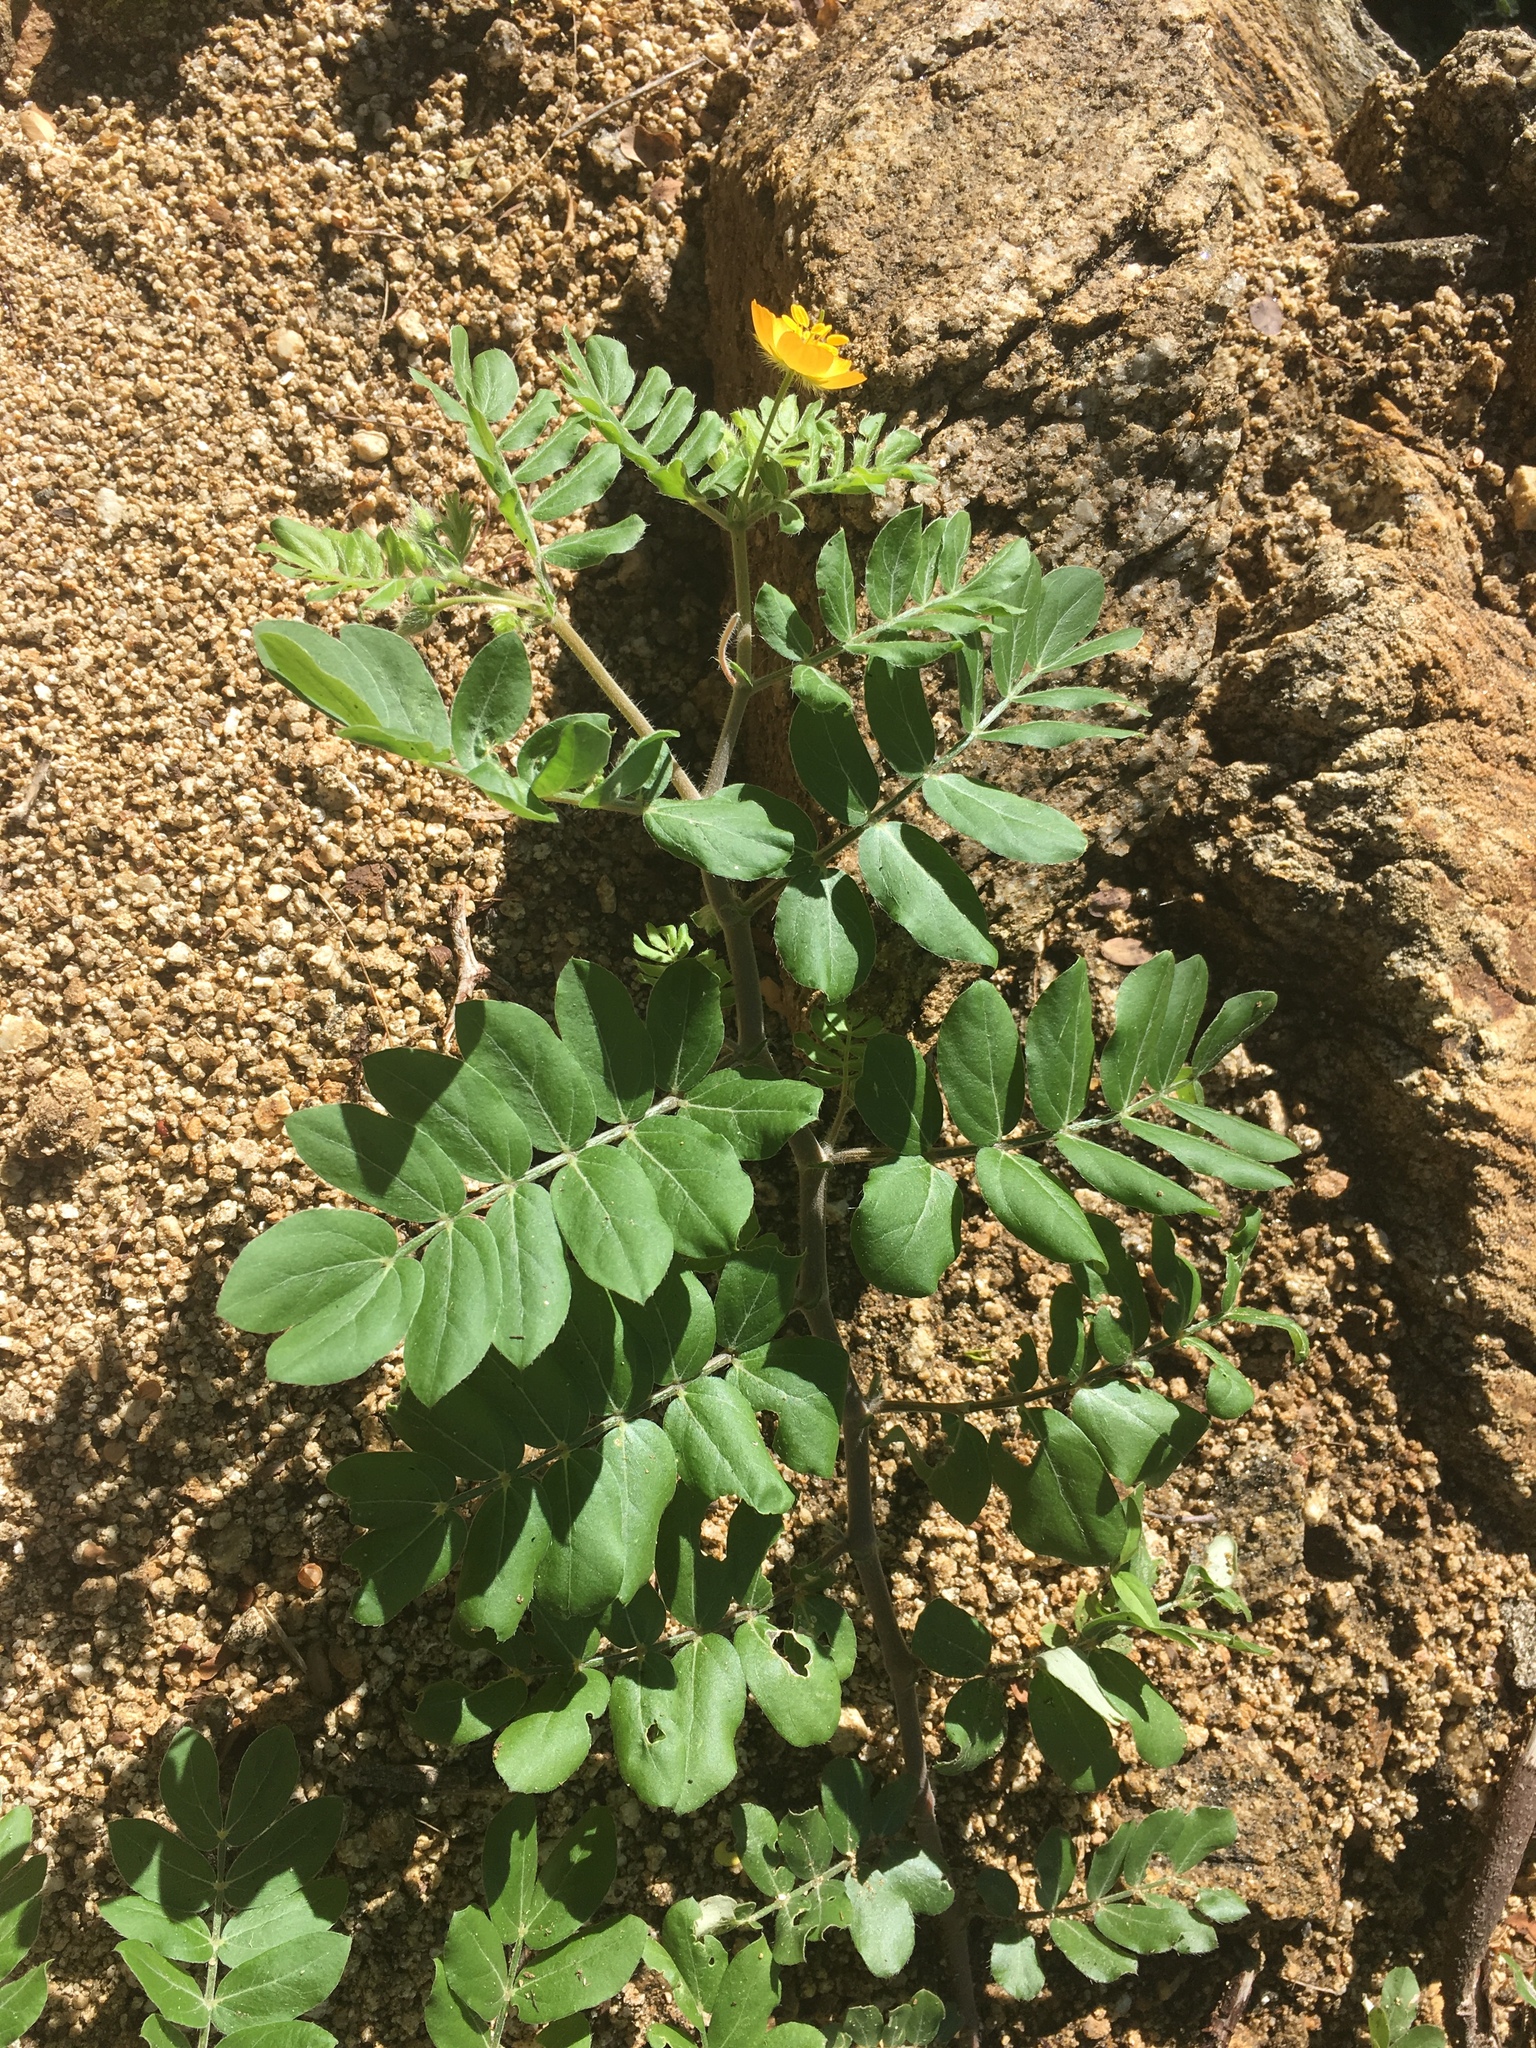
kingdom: Plantae
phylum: Tracheophyta
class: Magnoliopsida
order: Zygophyllales
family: Zygophyllaceae
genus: Kallstroemia
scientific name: Kallstroemia peninsularis
